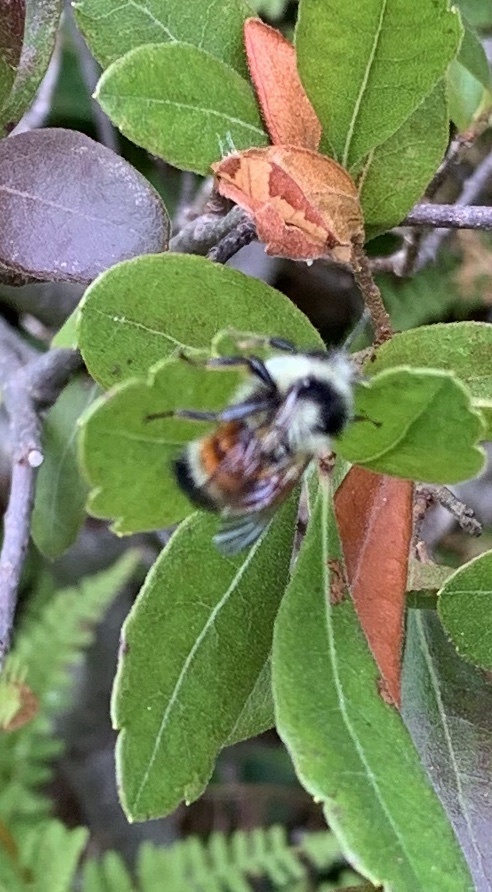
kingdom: Animalia
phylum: Arthropoda
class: Insecta
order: Hymenoptera
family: Apidae
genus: Bombus
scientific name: Bombus ternarius
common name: Tri-colored bumble bee
